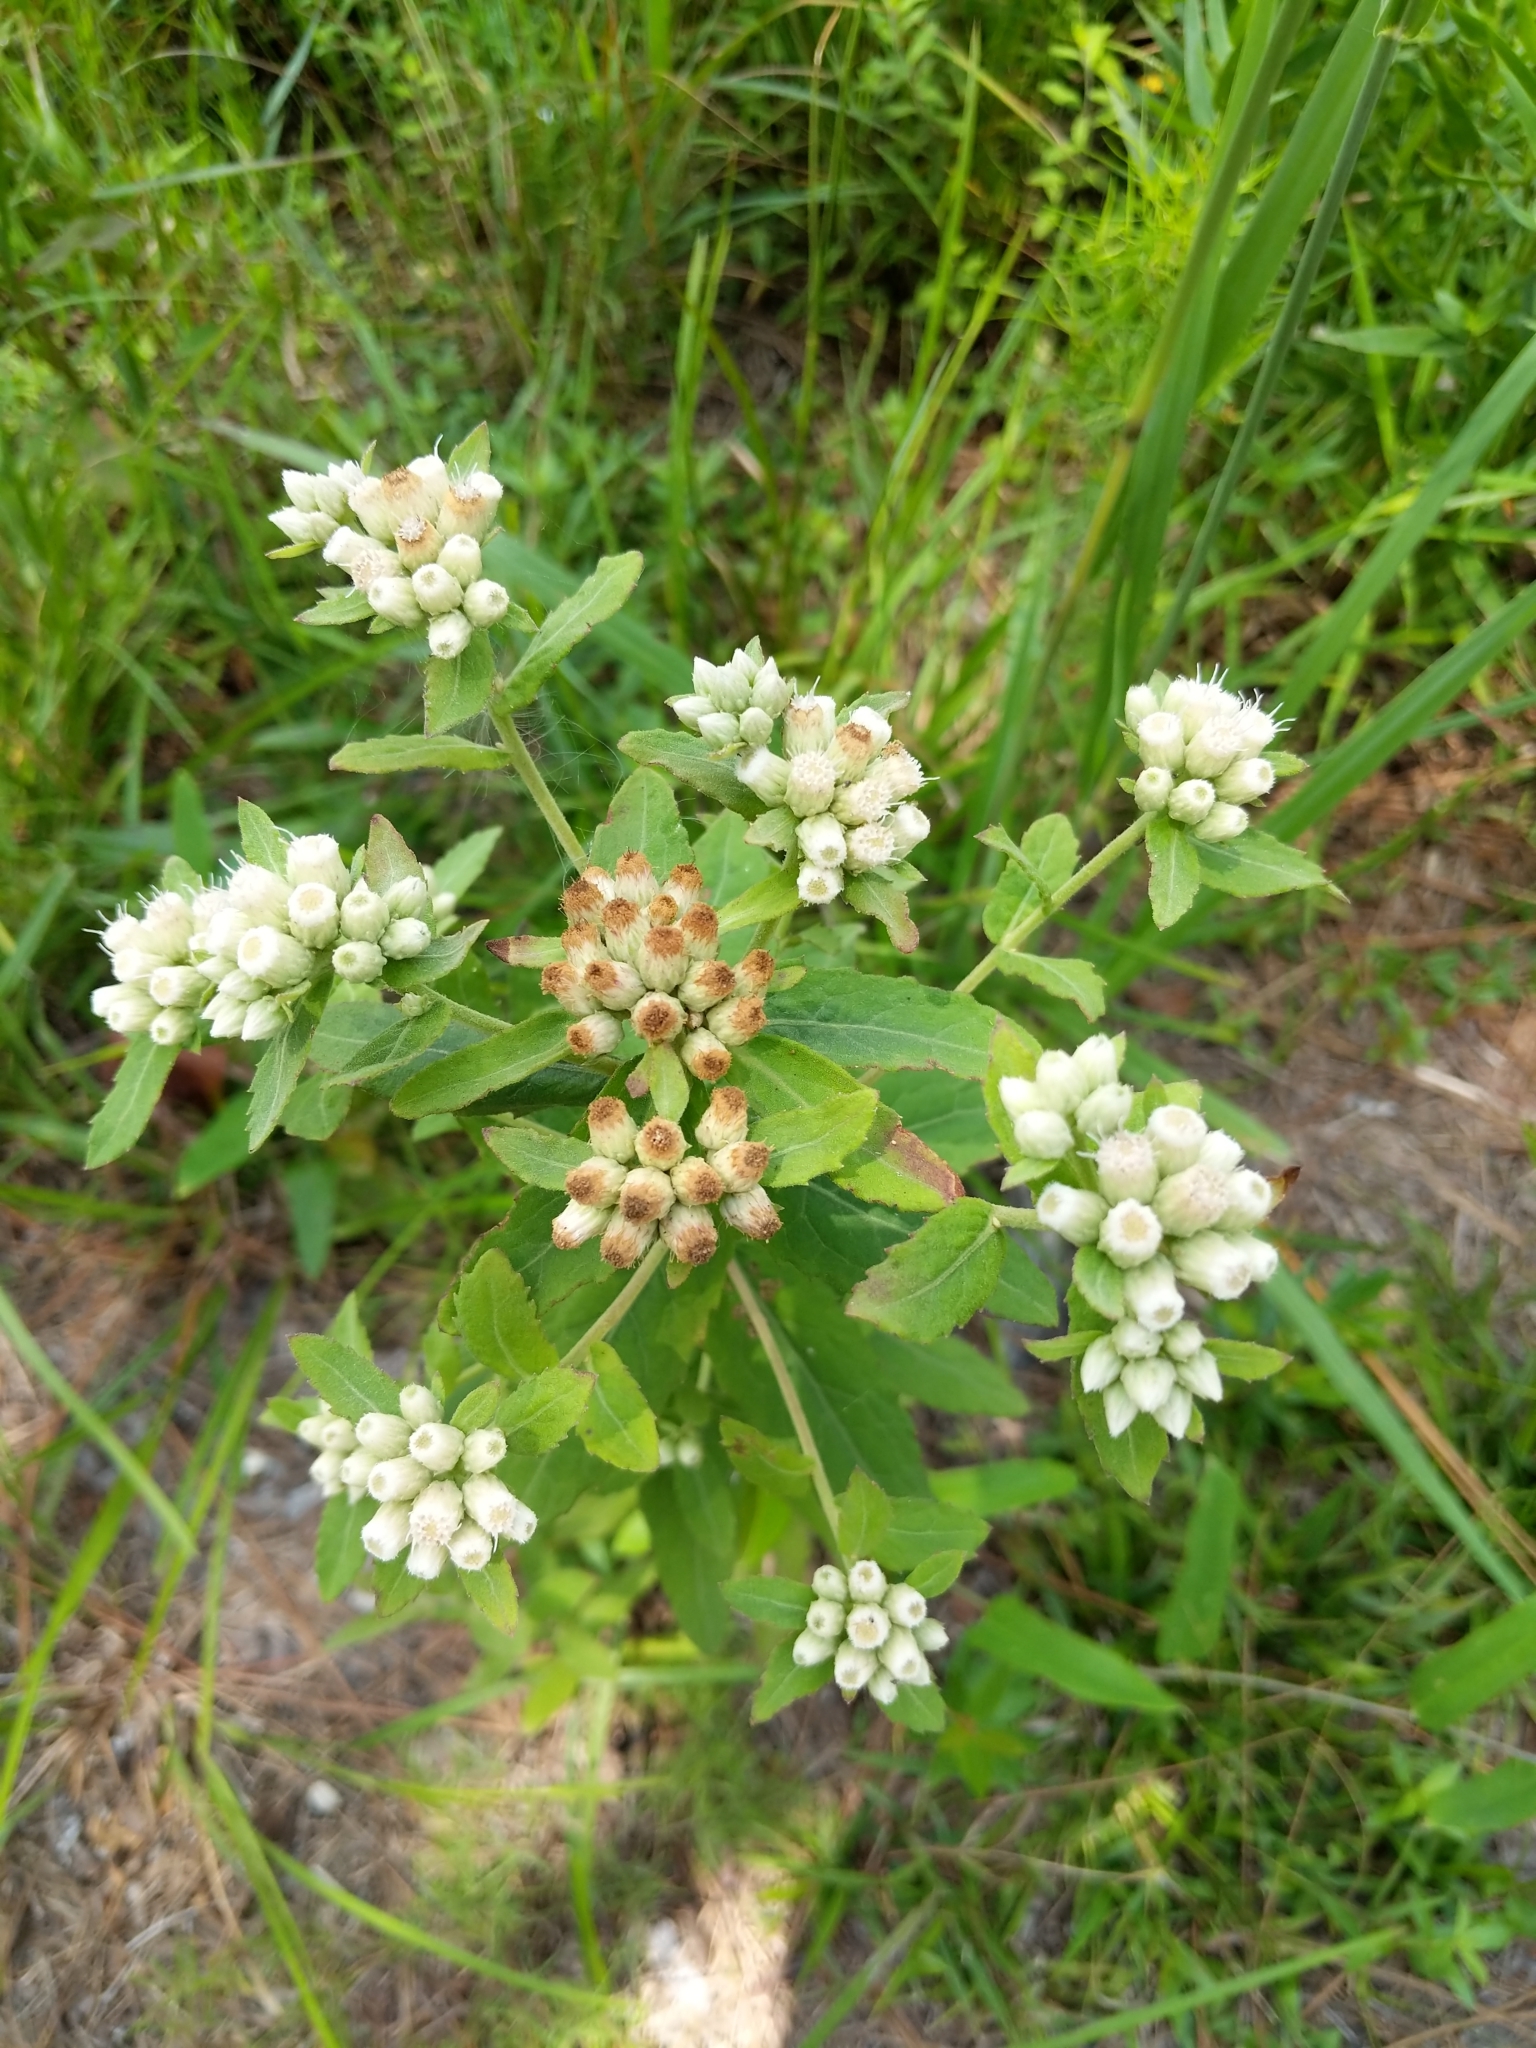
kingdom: Plantae
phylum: Tracheophyta
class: Magnoliopsida
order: Asterales
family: Asteraceae
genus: Pluchea
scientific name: Pluchea foetida
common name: Stinking camphorweed
